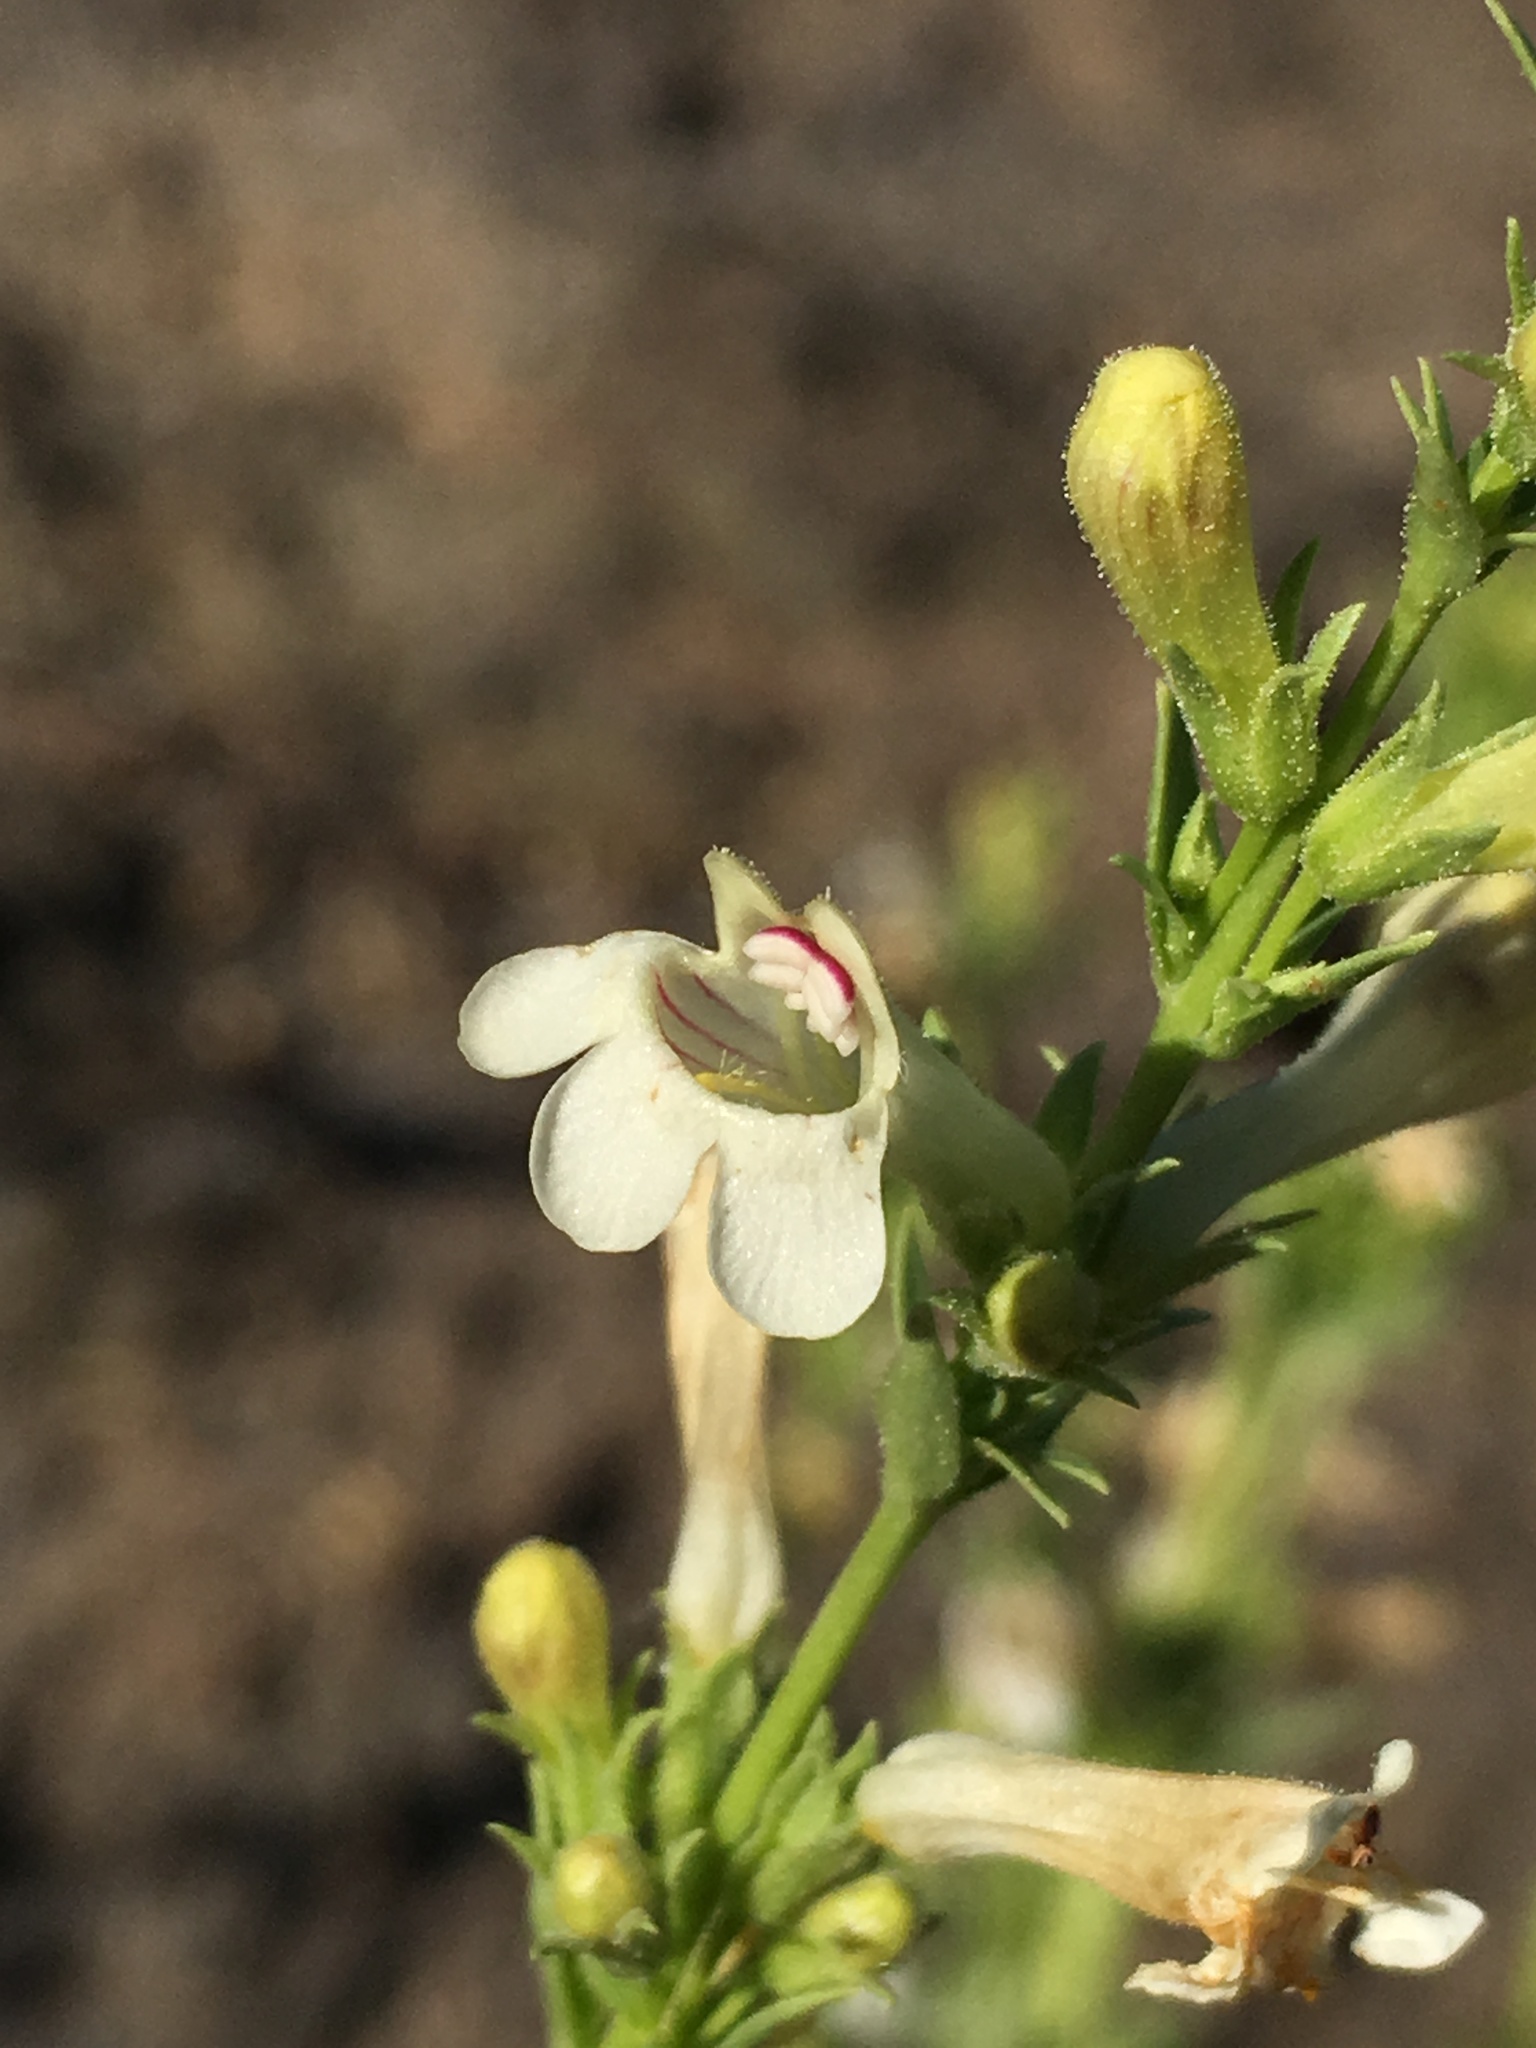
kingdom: Plantae
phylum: Tracheophyta
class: Magnoliopsida
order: Lamiales
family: Plantaginaceae
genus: Penstemon
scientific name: Penstemon deustus
